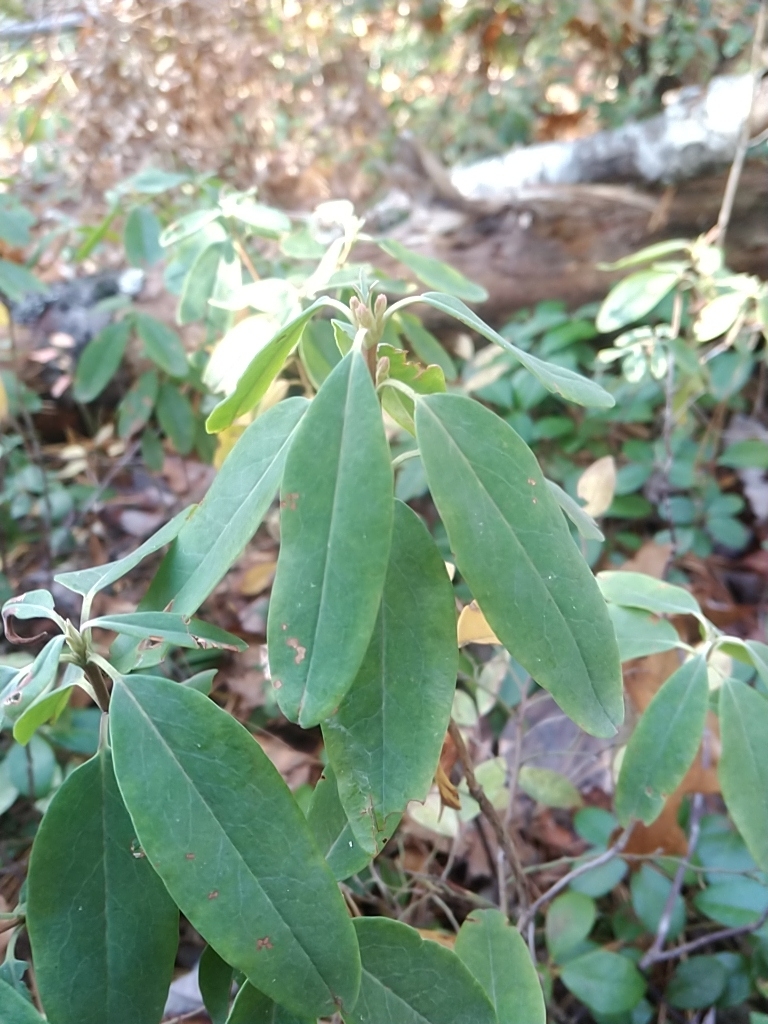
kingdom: Plantae
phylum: Tracheophyta
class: Magnoliopsida
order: Ericales
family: Ericaceae
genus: Kalmia
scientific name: Kalmia angustifolia
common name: Sheep-laurel
